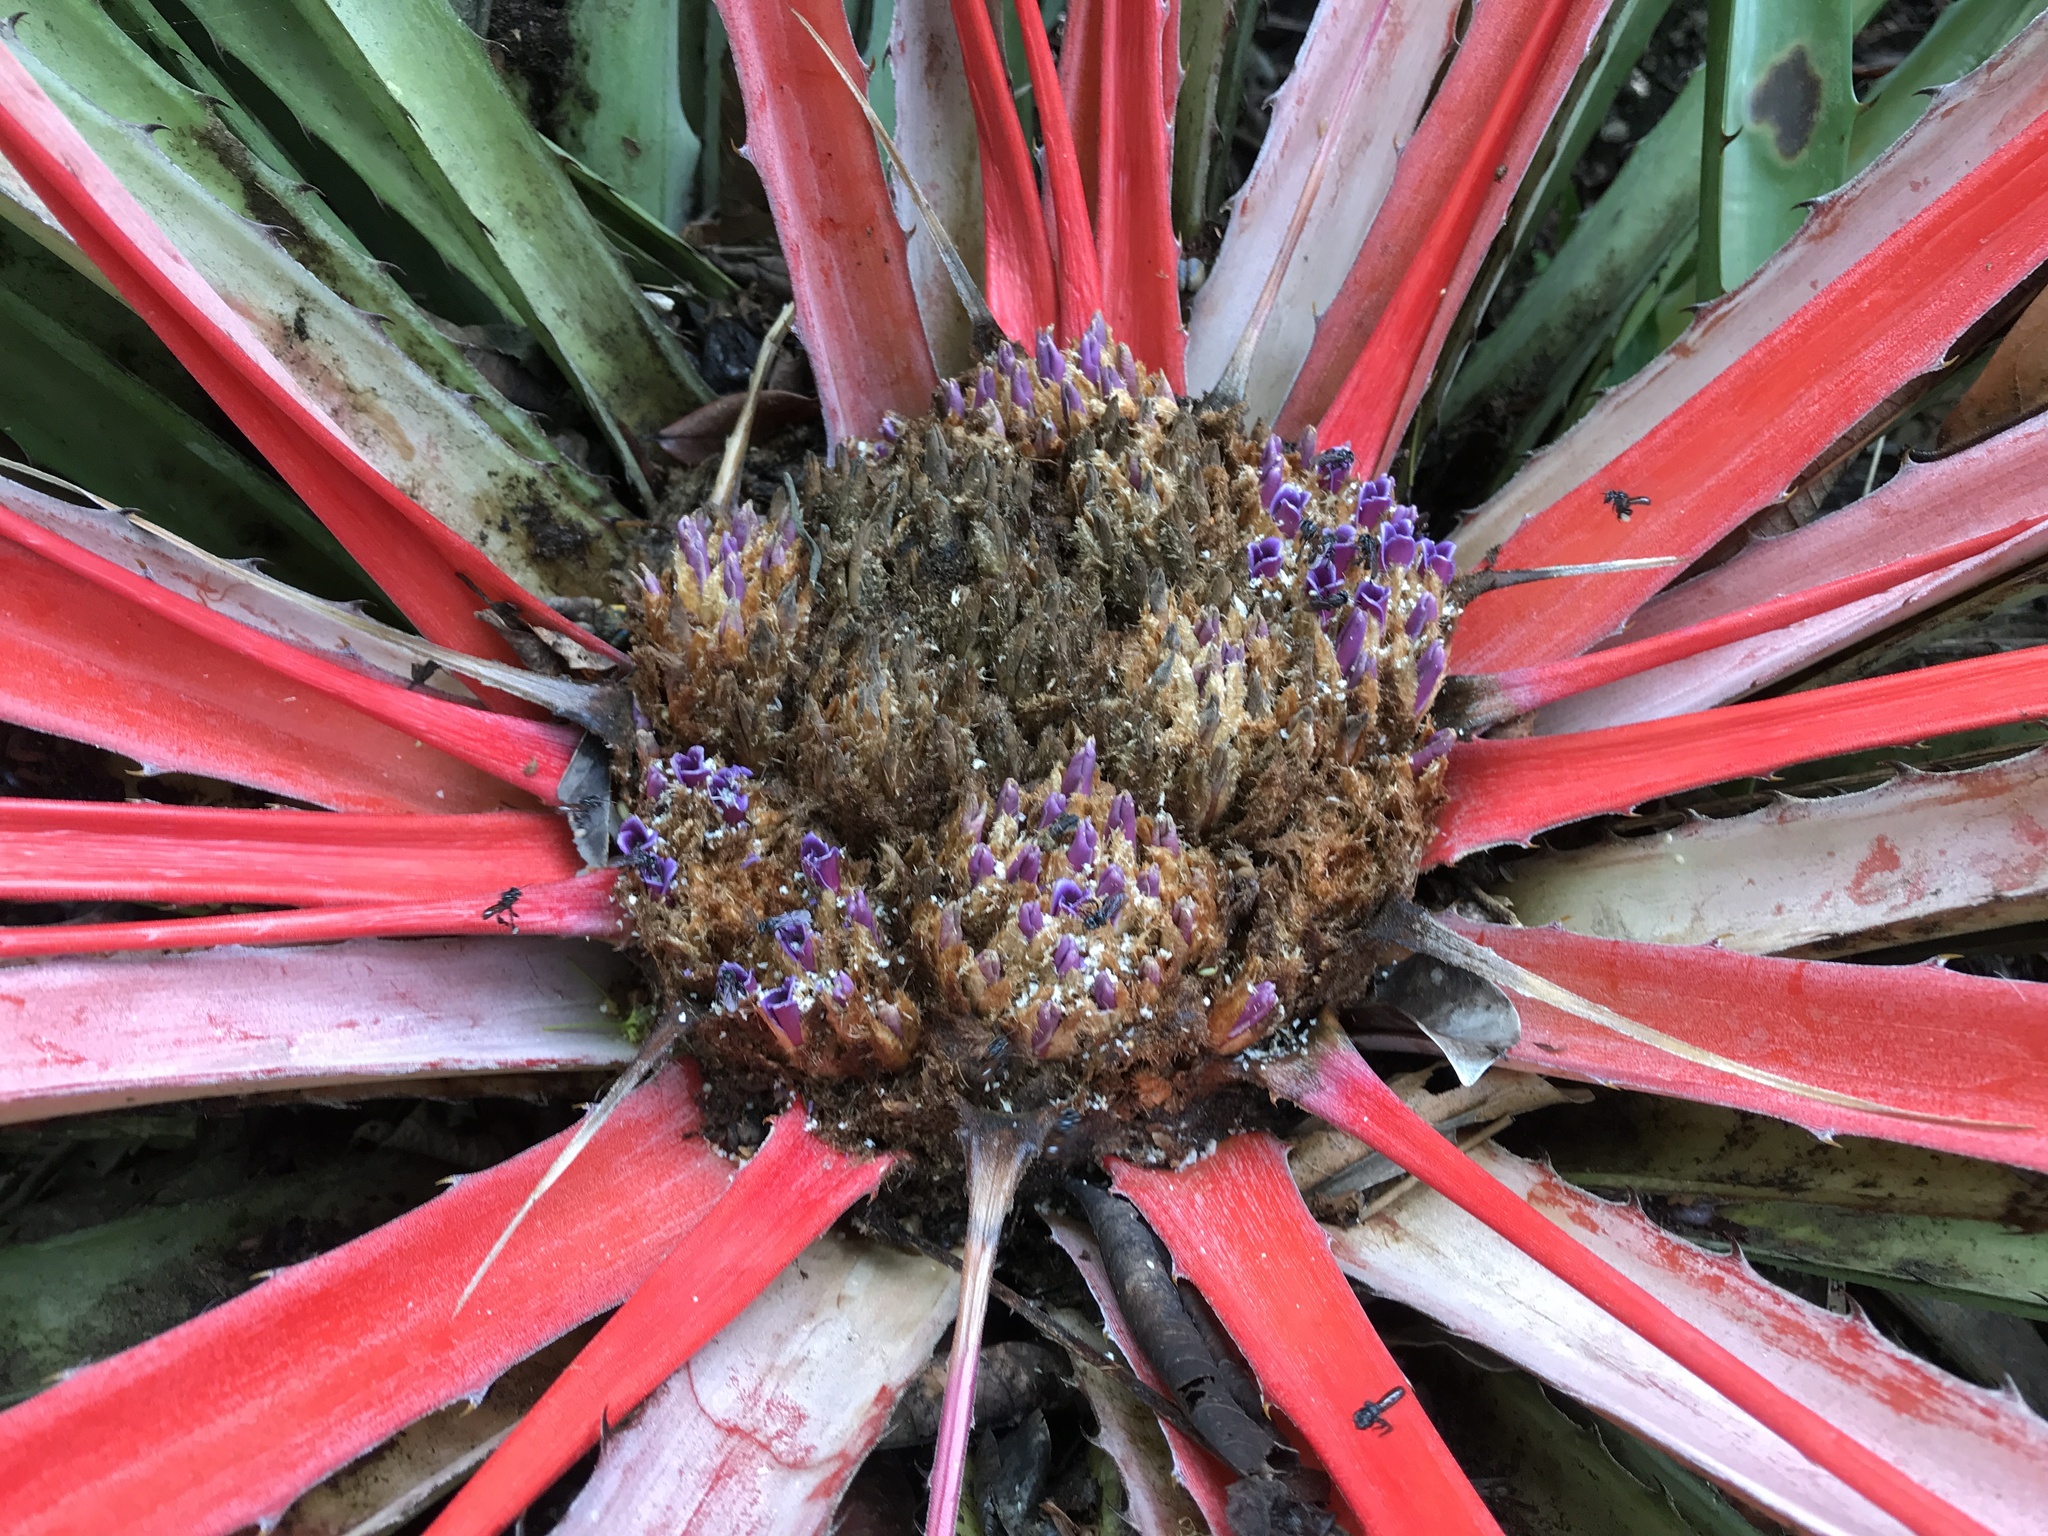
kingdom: Plantae
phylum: Tracheophyta
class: Liliopsida
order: Poales
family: Bromeliaceae
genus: Bromelia
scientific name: Bromelia grandiflora
